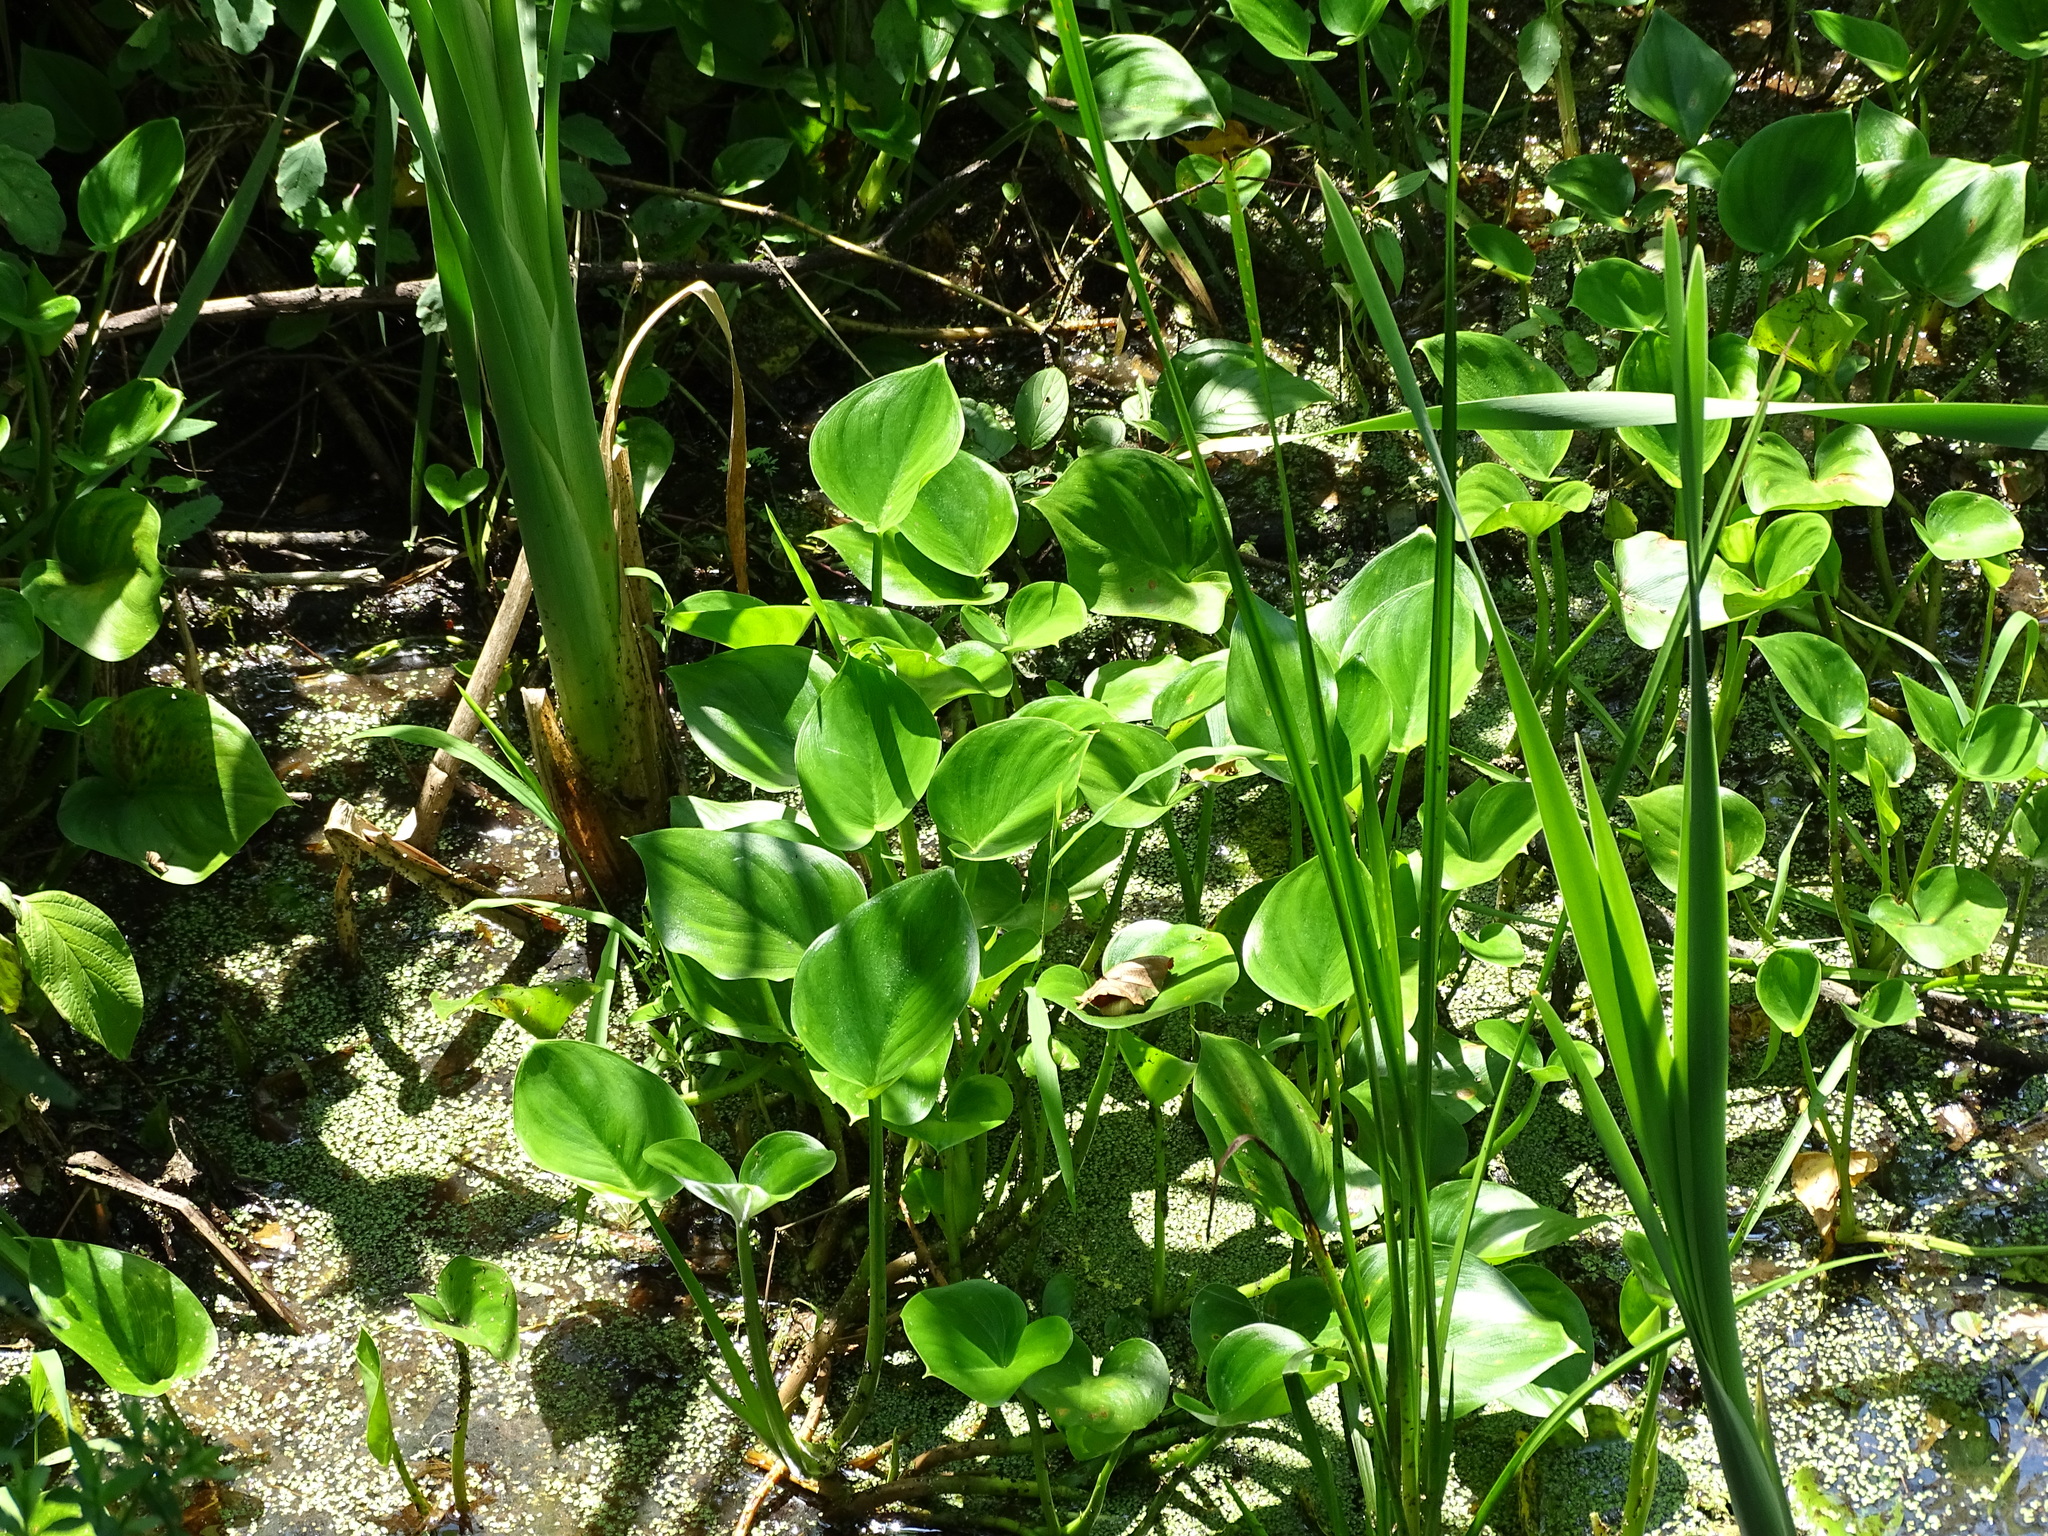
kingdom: Plantae
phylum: Tracheophyta
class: Liliopsida
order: Alismatales
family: Araceae
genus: Calla
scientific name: Calla palustris
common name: Bog arum
